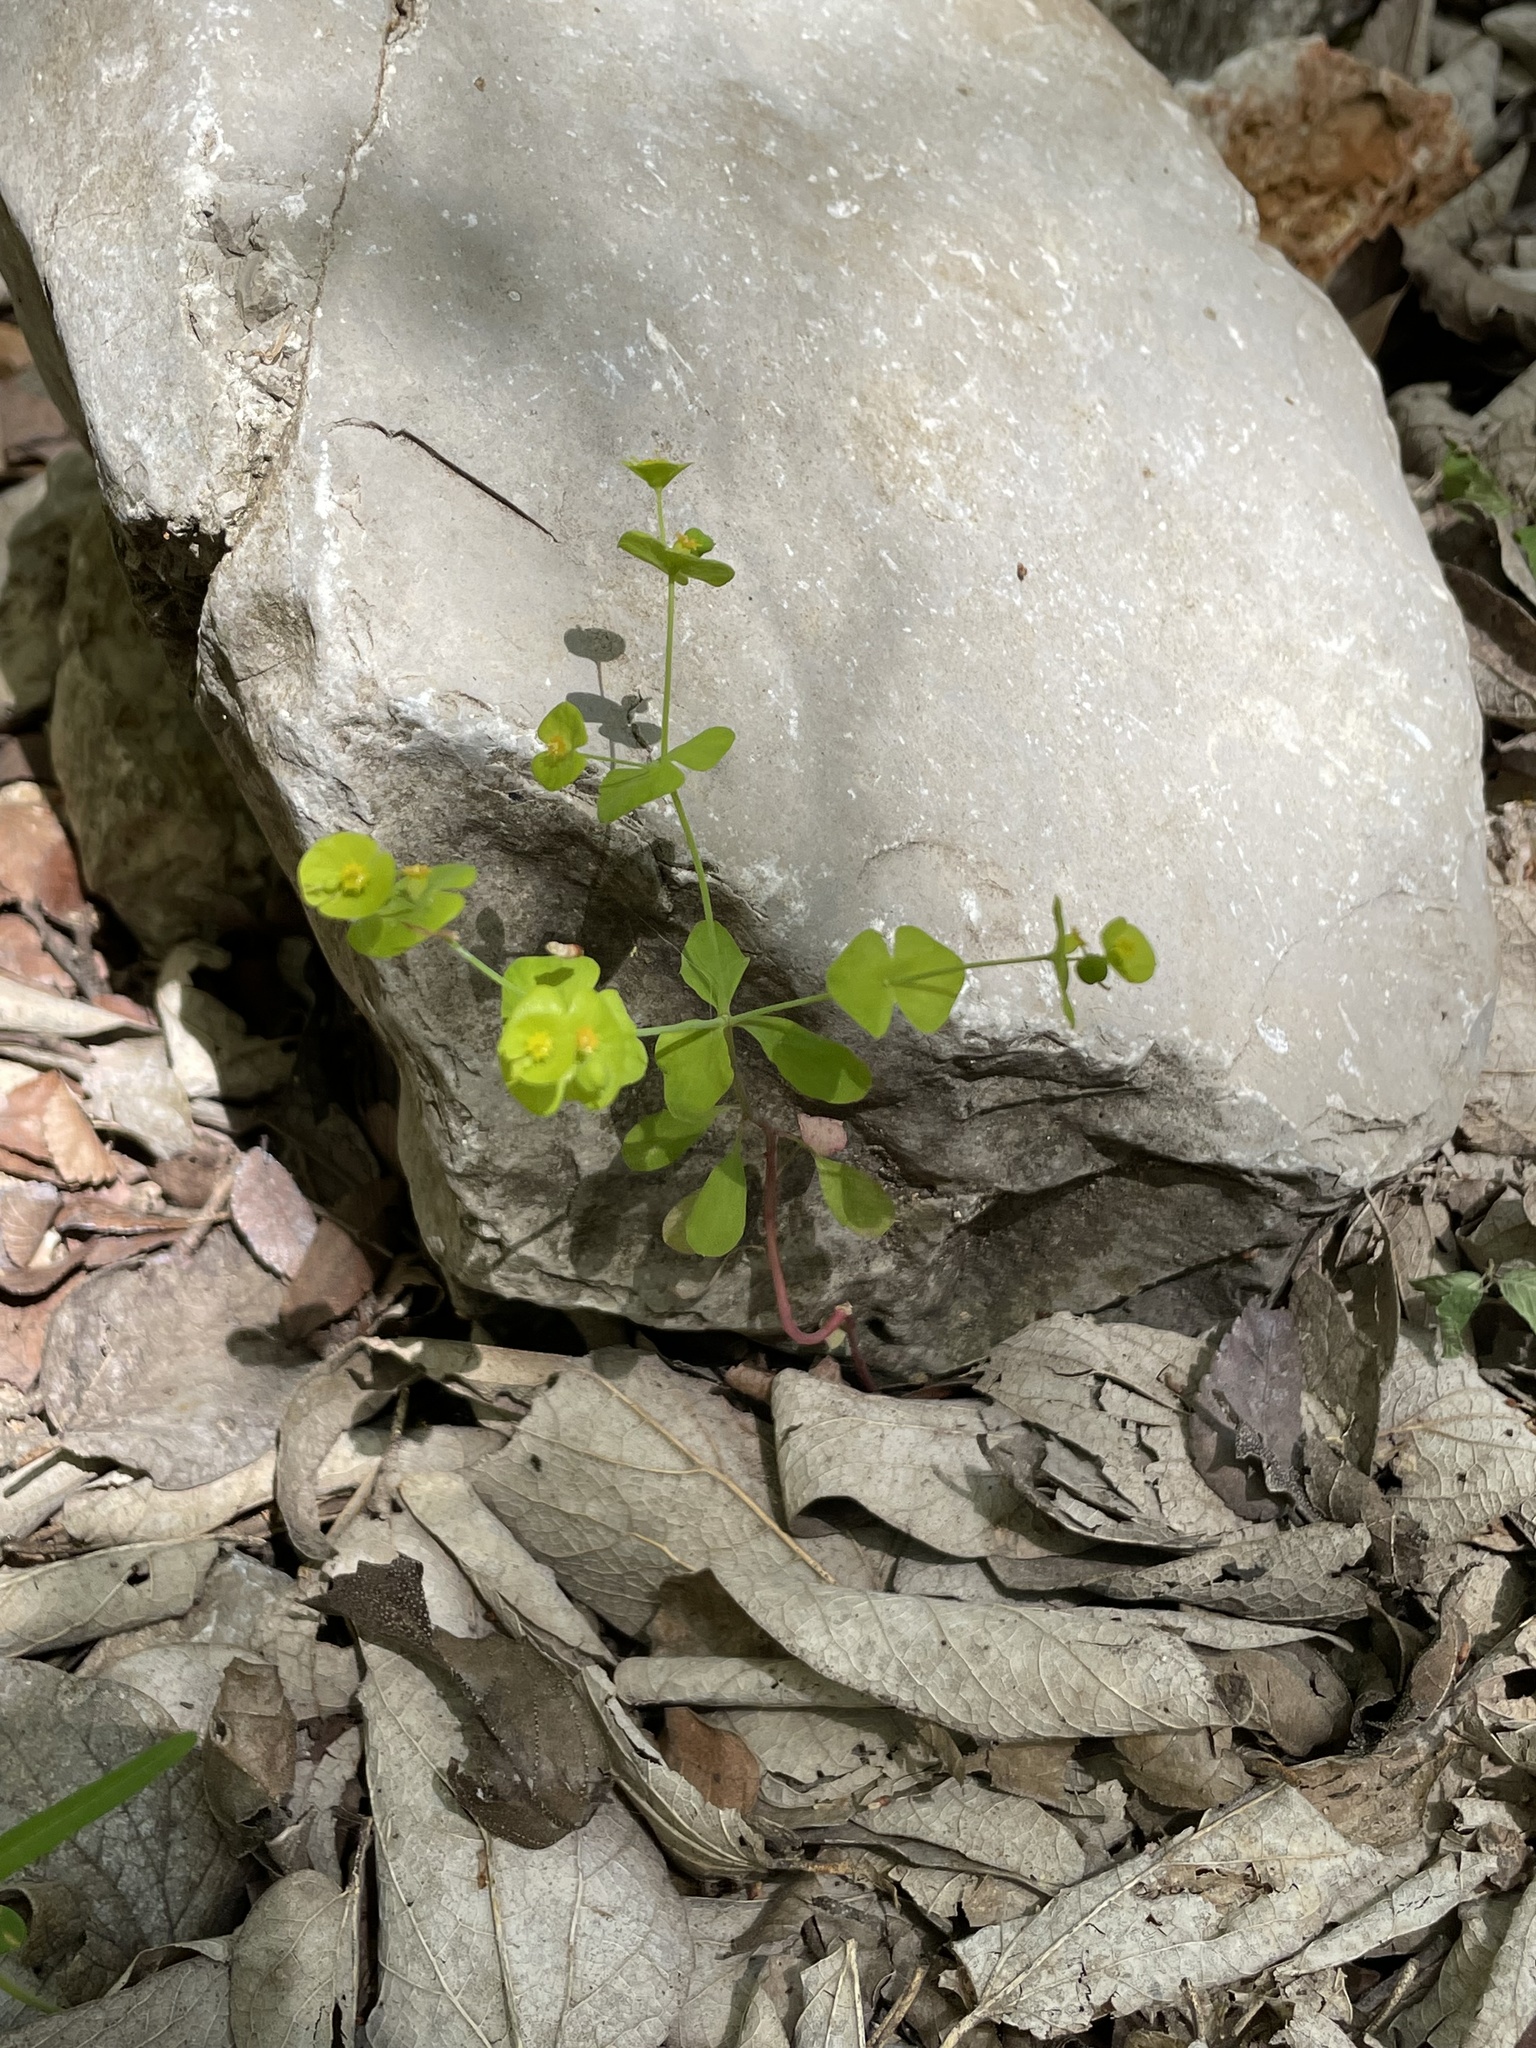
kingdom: Plantae
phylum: Tracheophyta
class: Magnoliopsida
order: Malpighiales
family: Euphorbiaceae
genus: Euphorbia
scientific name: Euphorbia roemeriana
